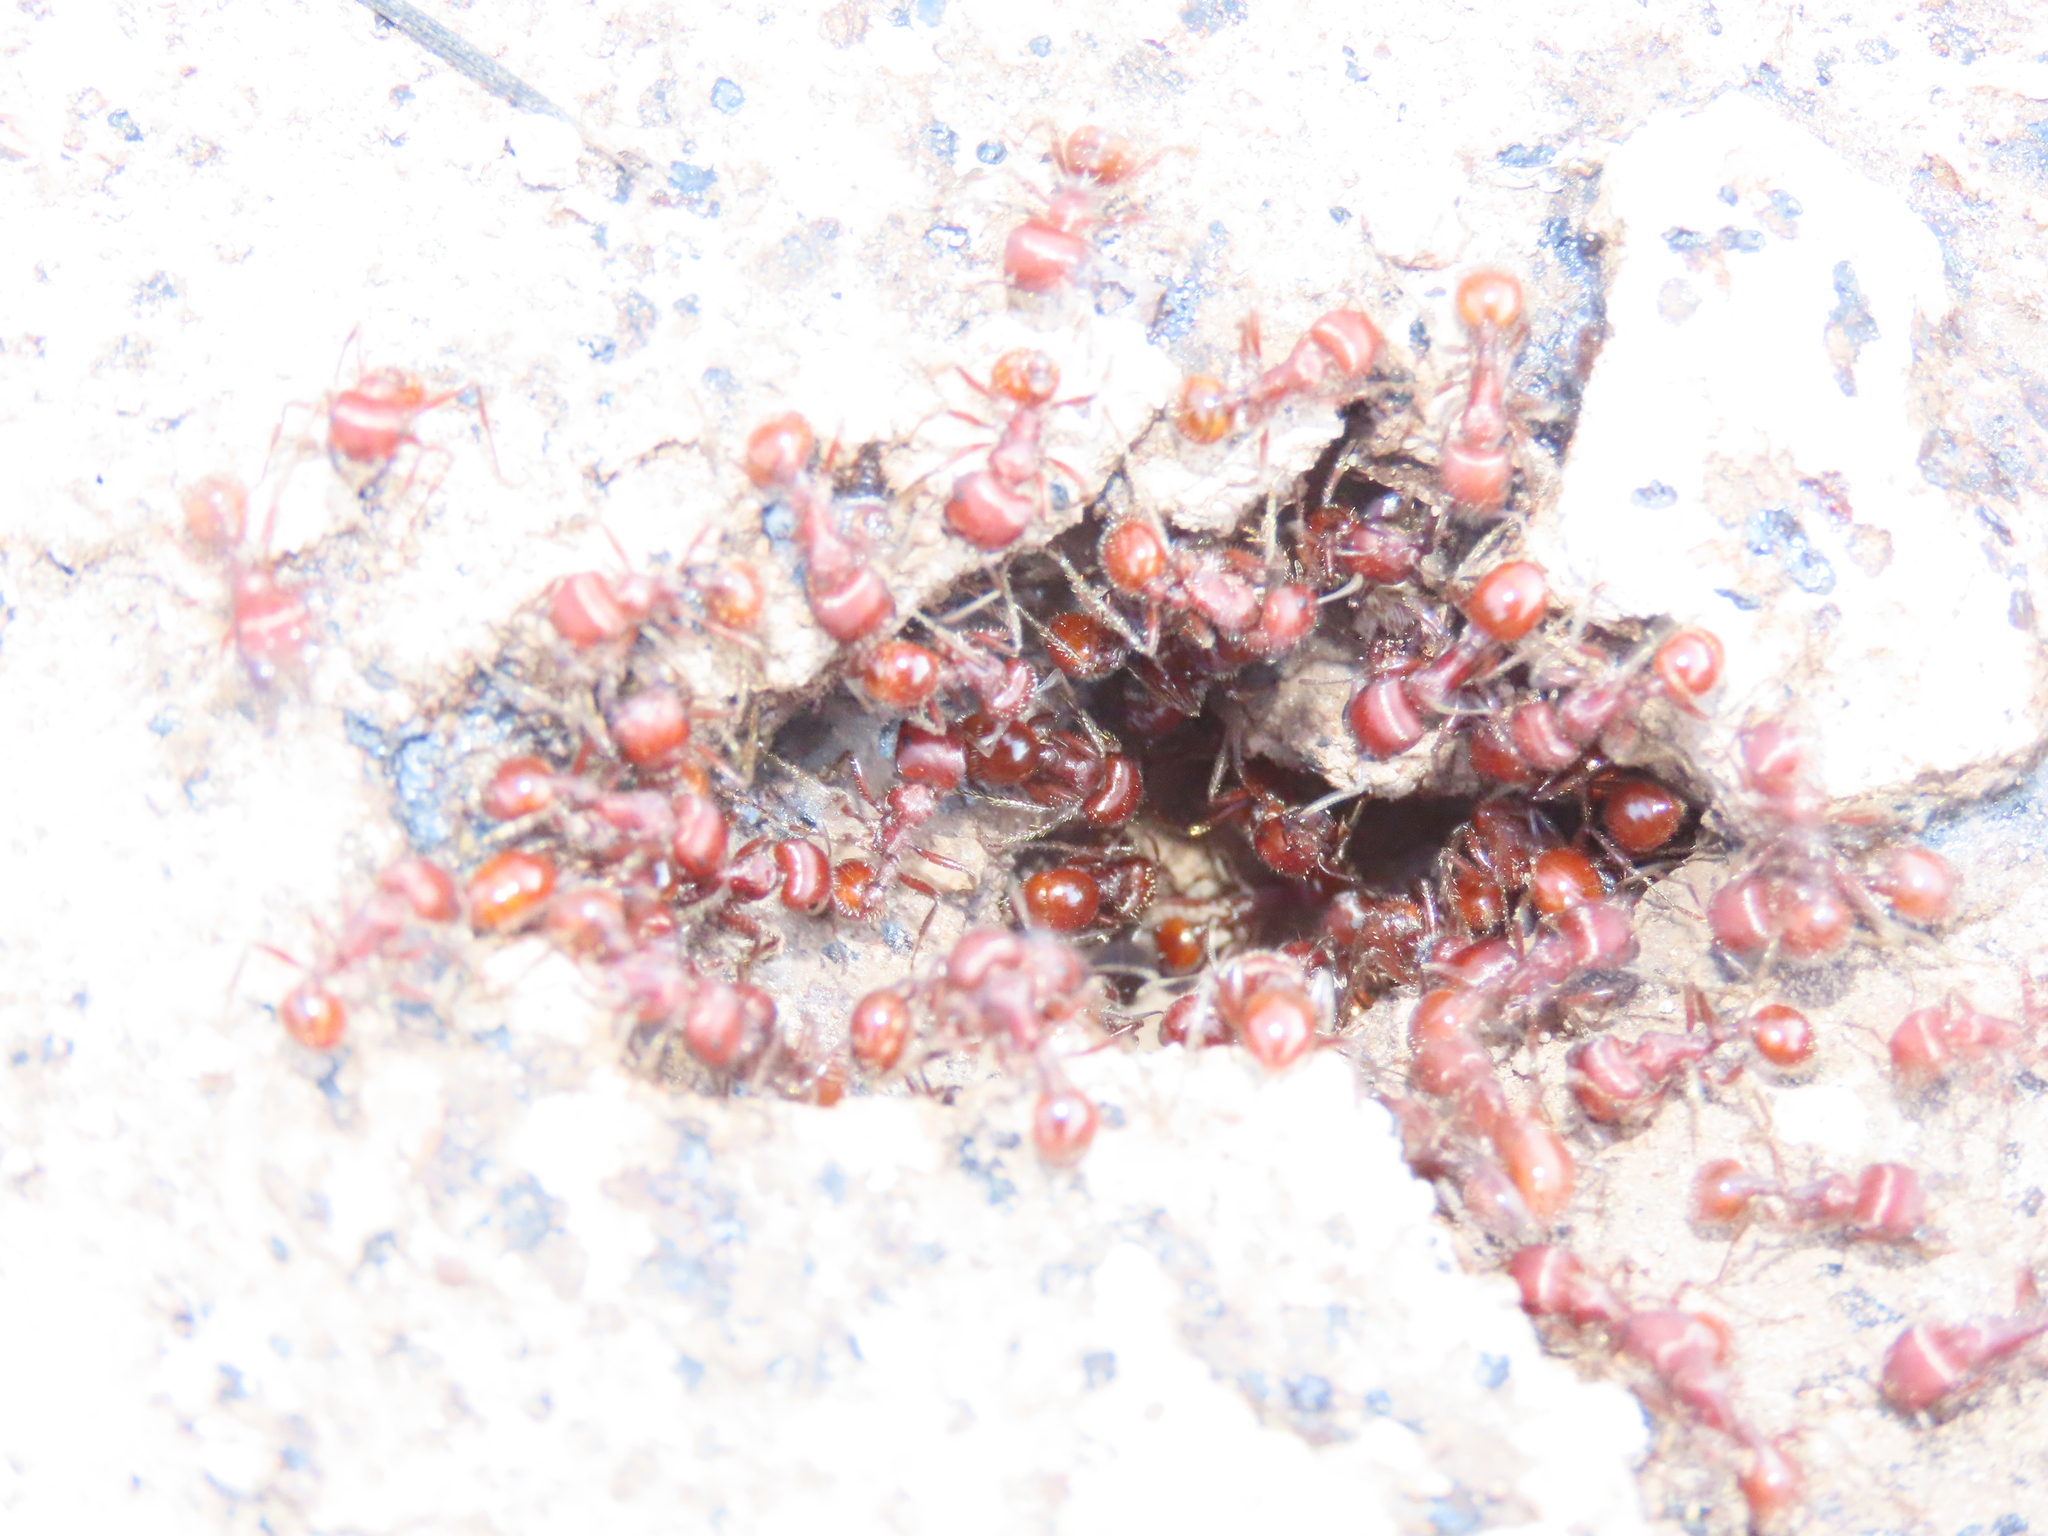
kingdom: Animalia
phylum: Arthropoda
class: Insecta
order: Hymenoptera
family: Formicidae
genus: Pogonomyrmex
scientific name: Pogonomyrmex barbatus
